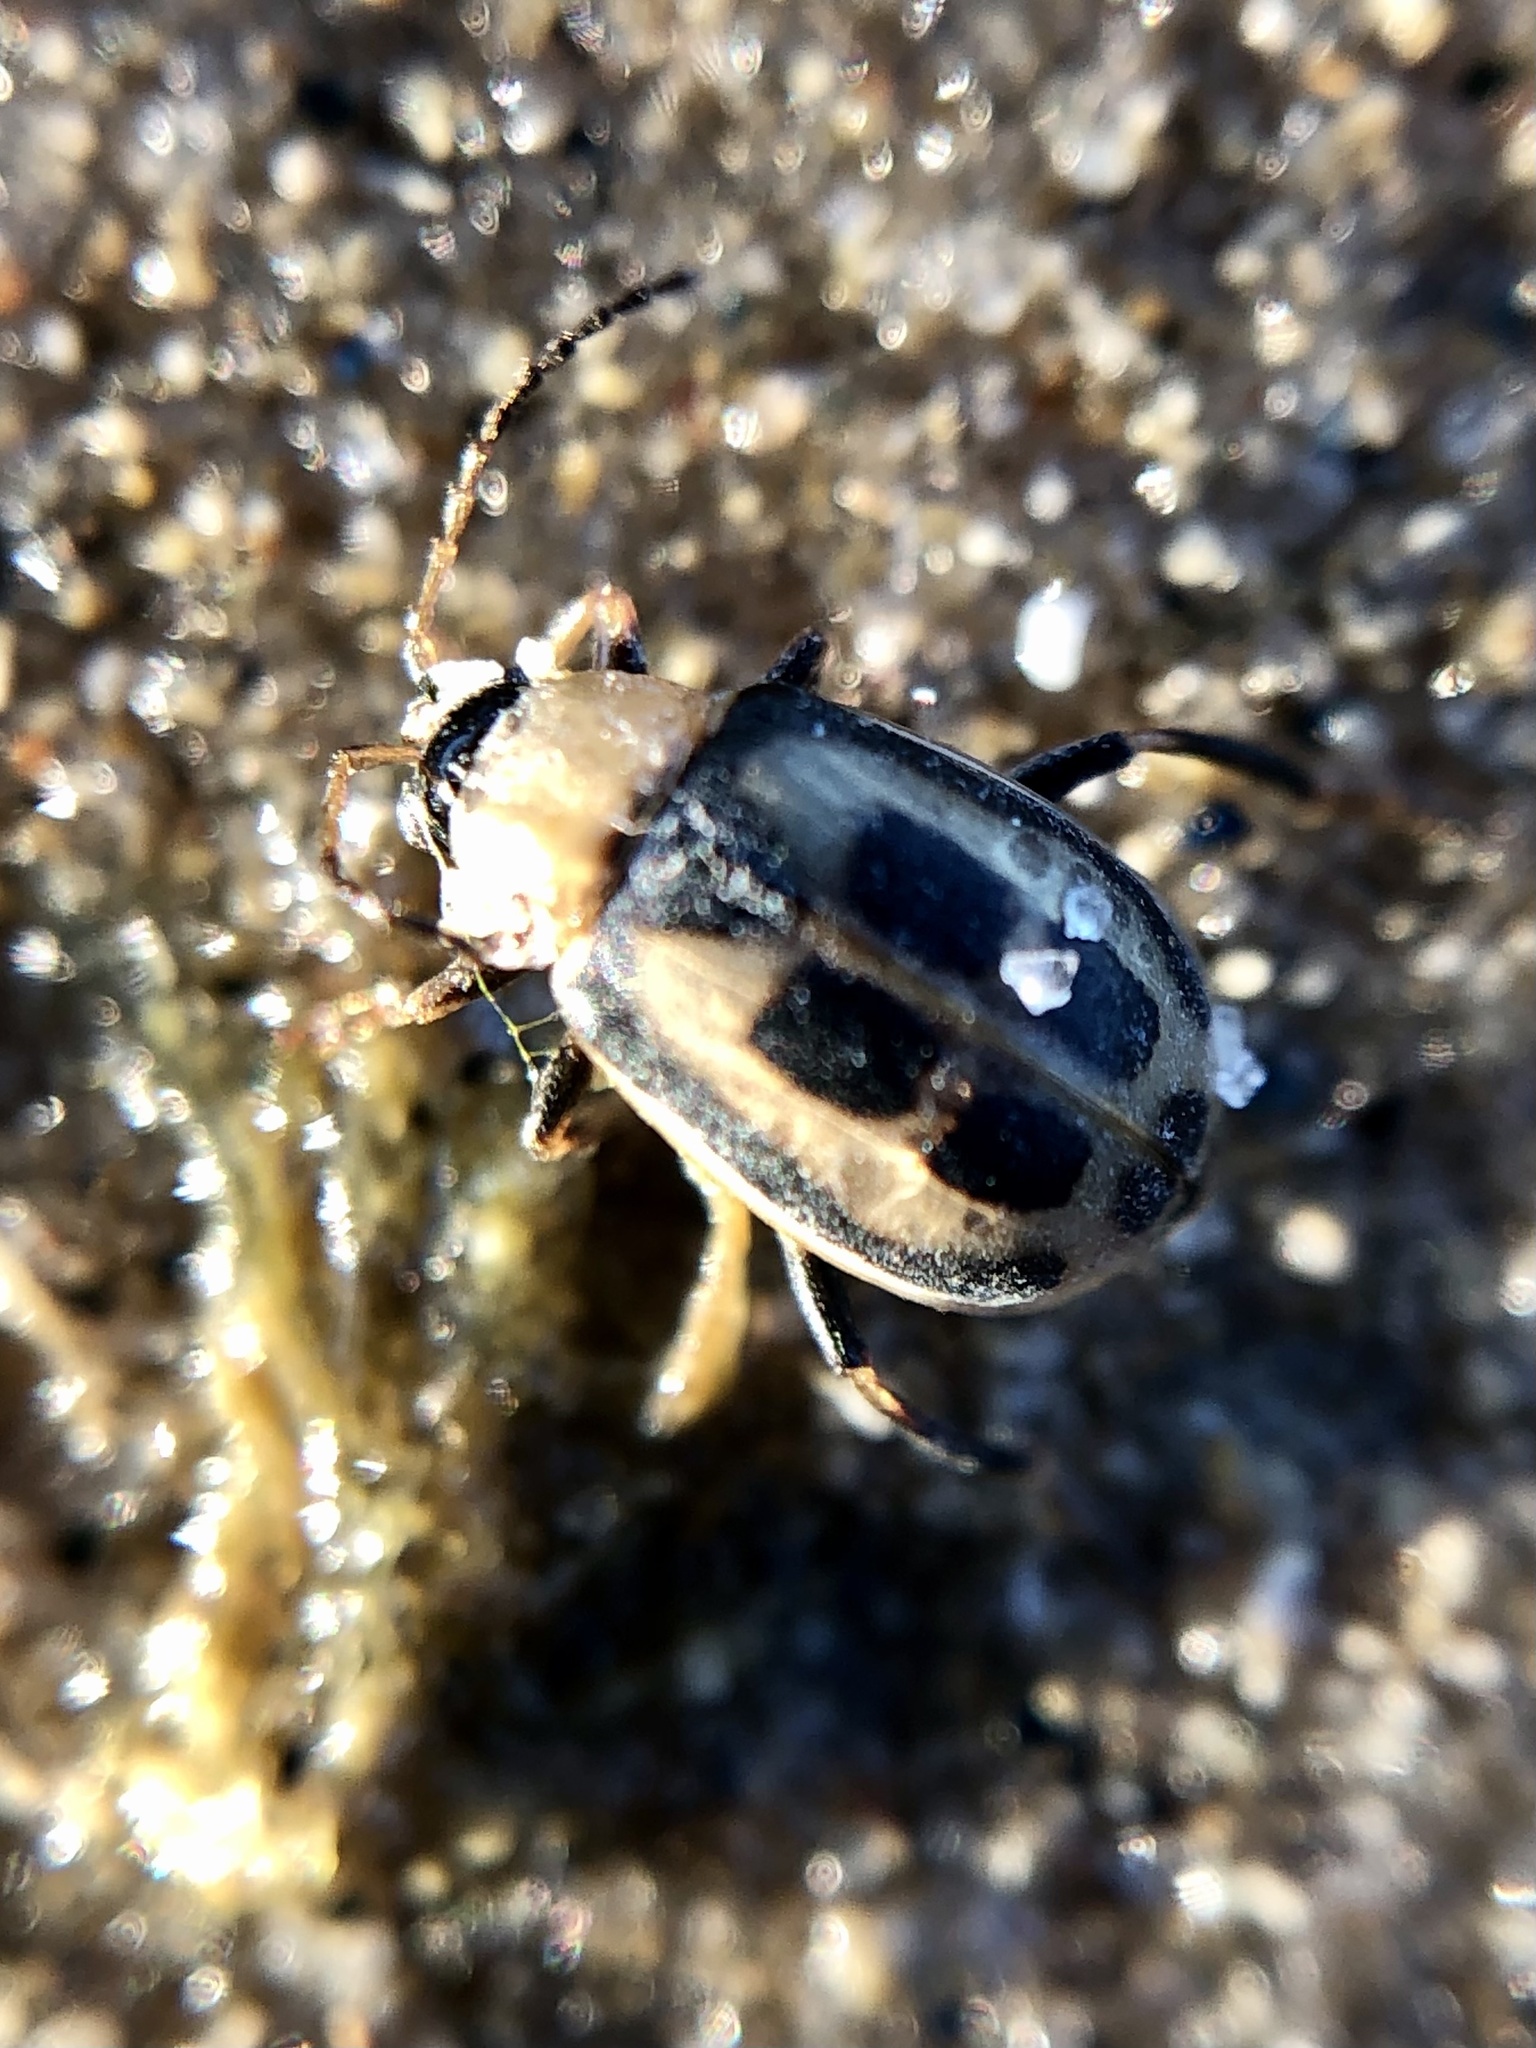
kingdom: Animalia
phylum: Arthropoda
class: Insecta
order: Coleoptera
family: Chrysomelidae
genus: Cerotoma
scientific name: Cerotoma trifurcata
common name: Bean leaf beetle
